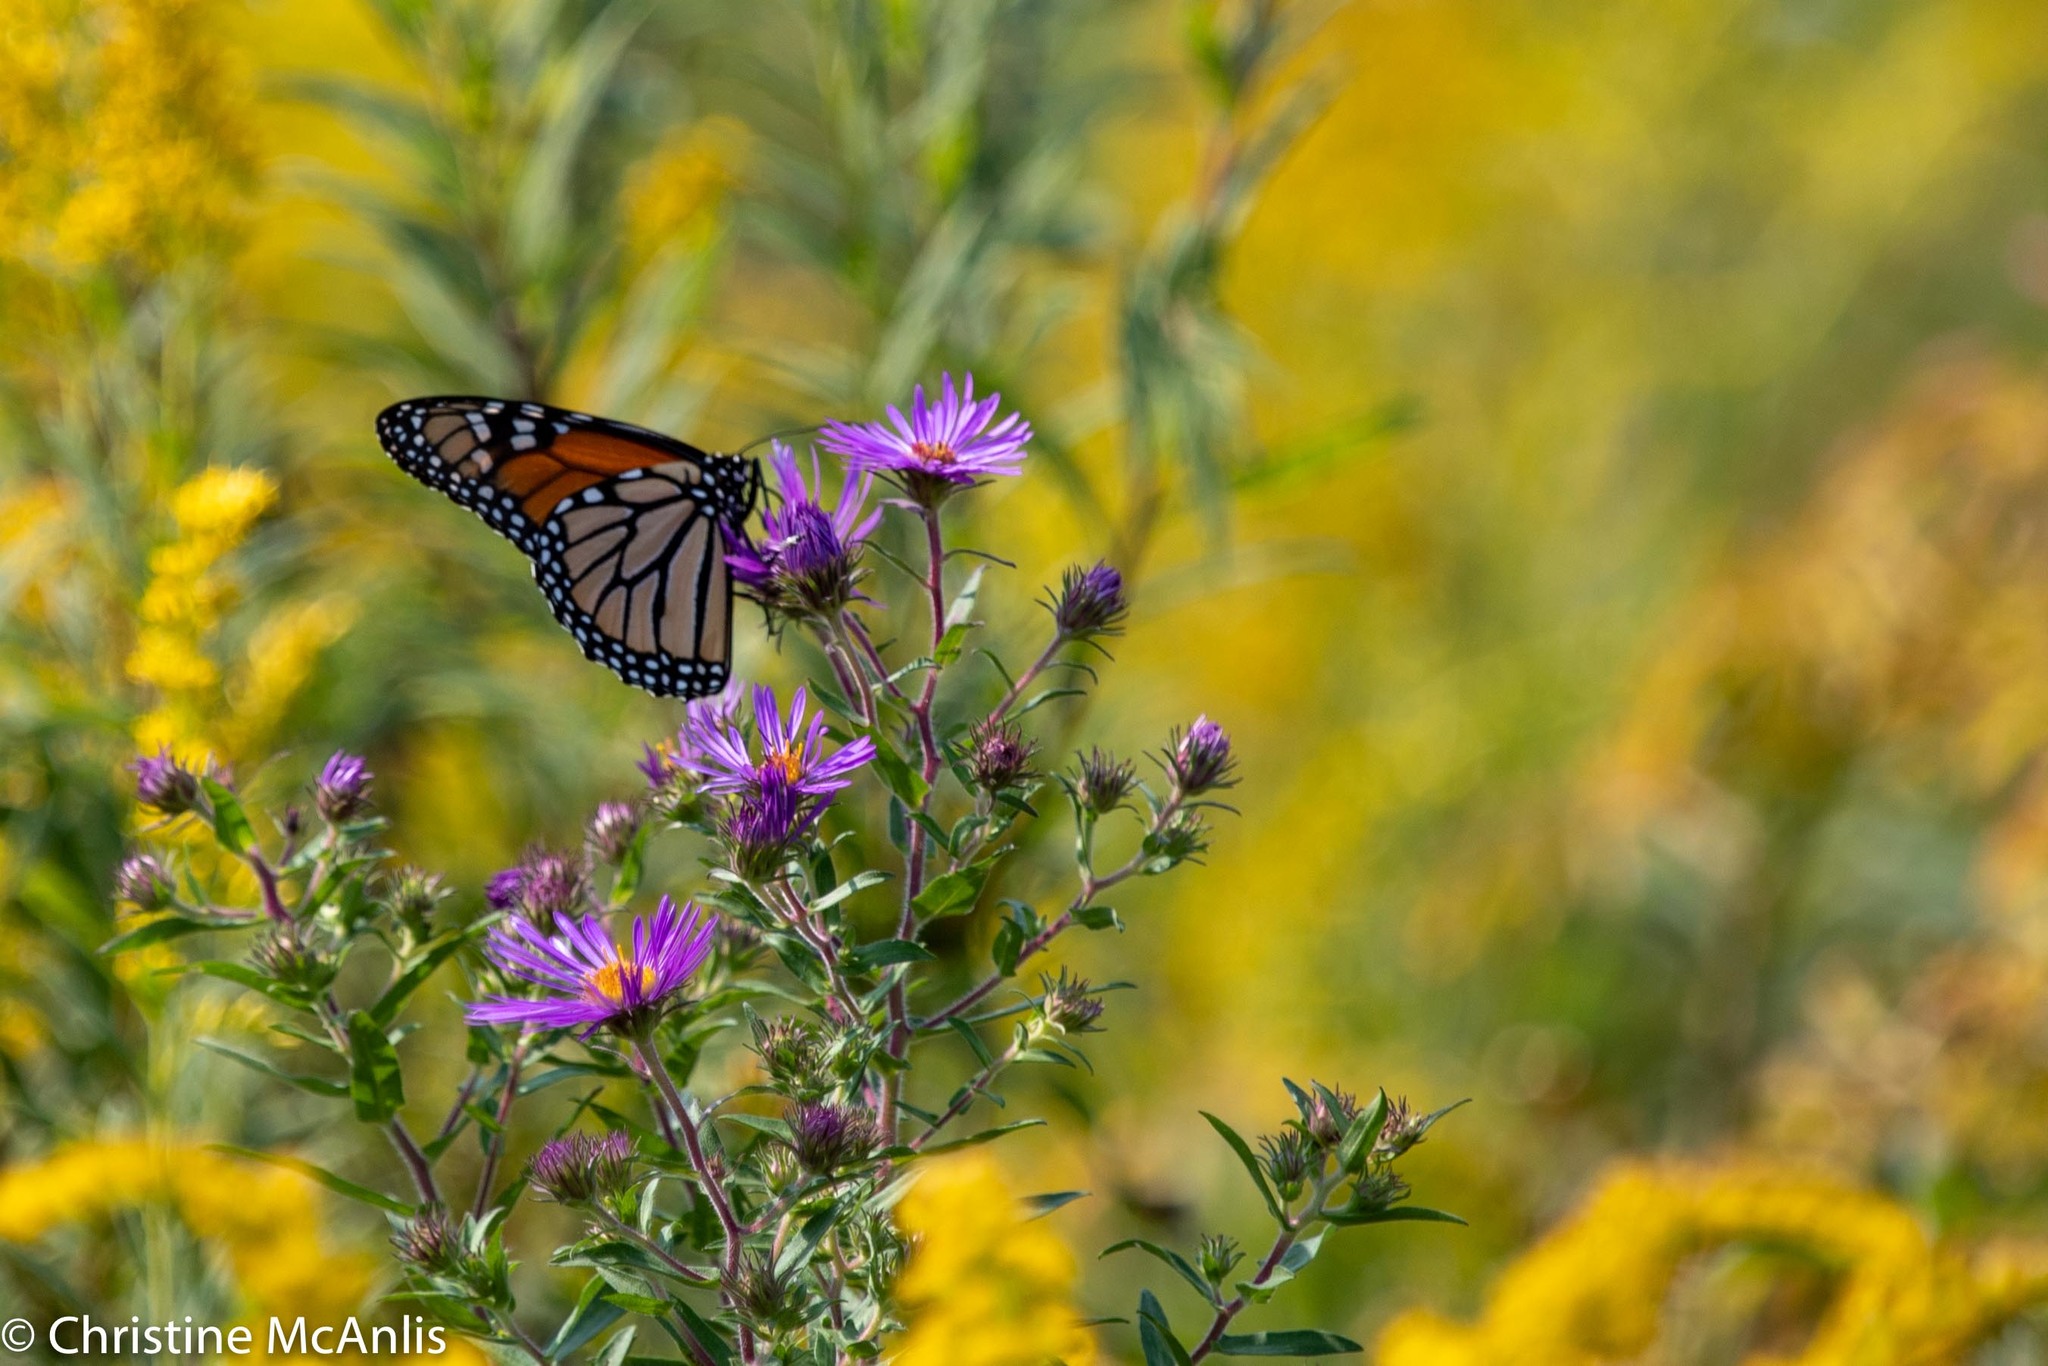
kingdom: Animalia
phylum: Arthropoda
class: Insecta
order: Lepidoptera
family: Nymphalidae
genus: Danaus
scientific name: Danaus plexippus
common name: Monarch
